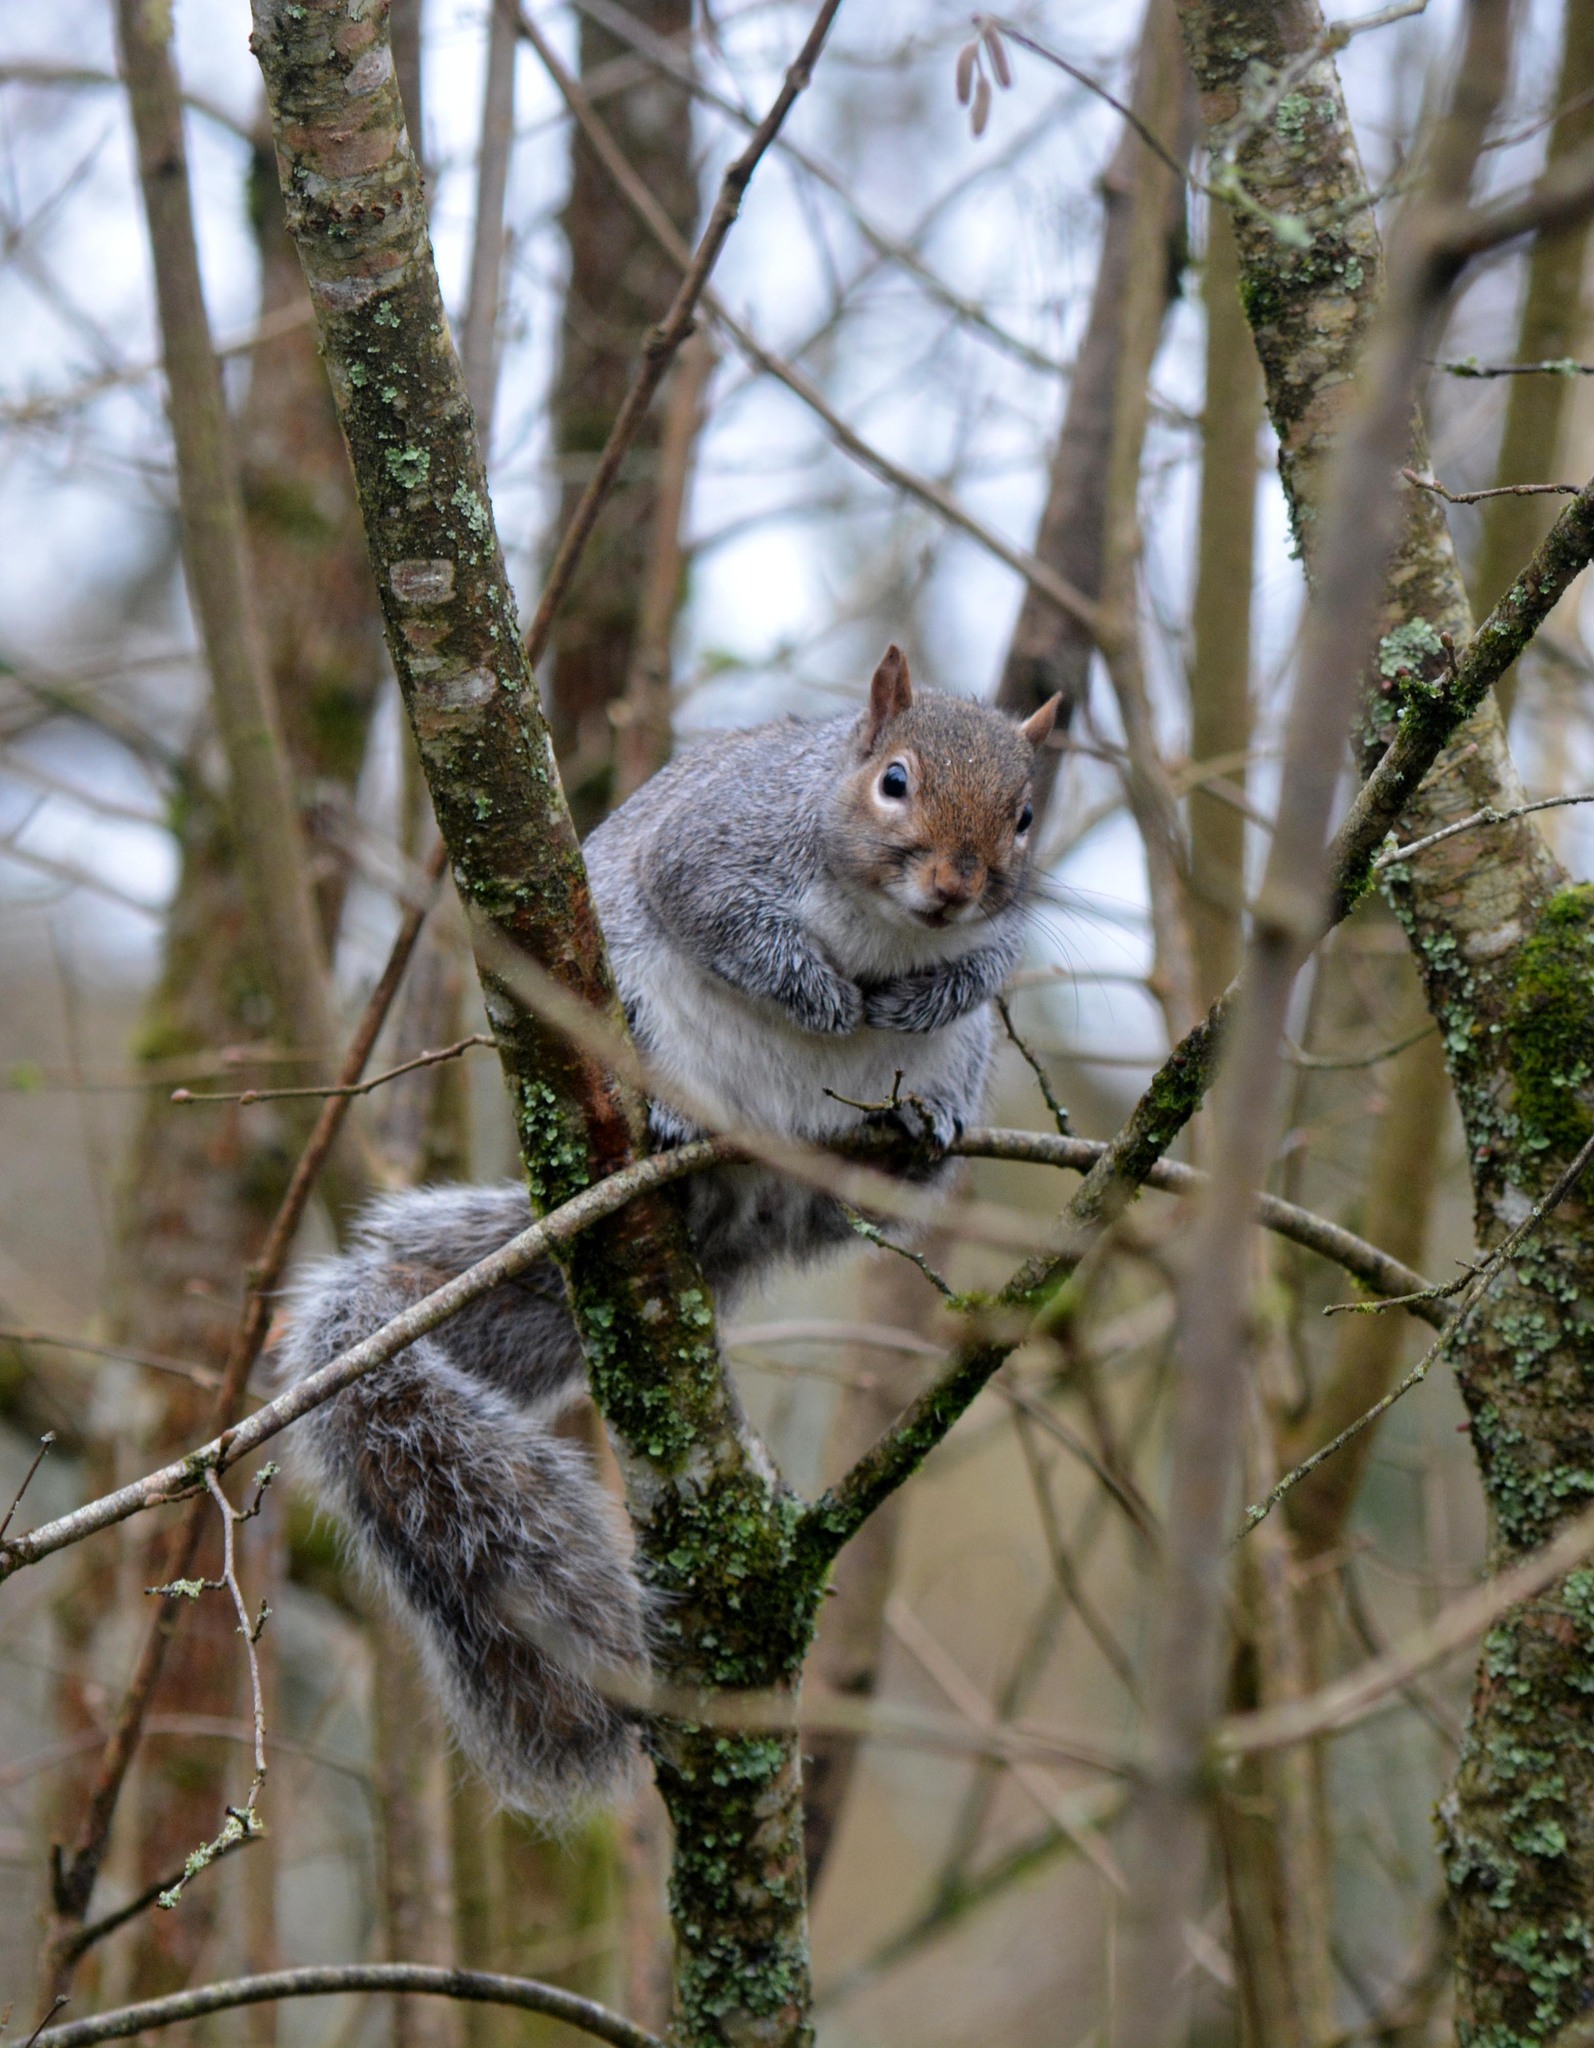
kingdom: Animalia
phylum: Chordata
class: Mammalia
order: Rodentia
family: Sciuridae
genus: Sciurus
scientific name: Sciurus carolinensis
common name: Eastern gray squirrel
